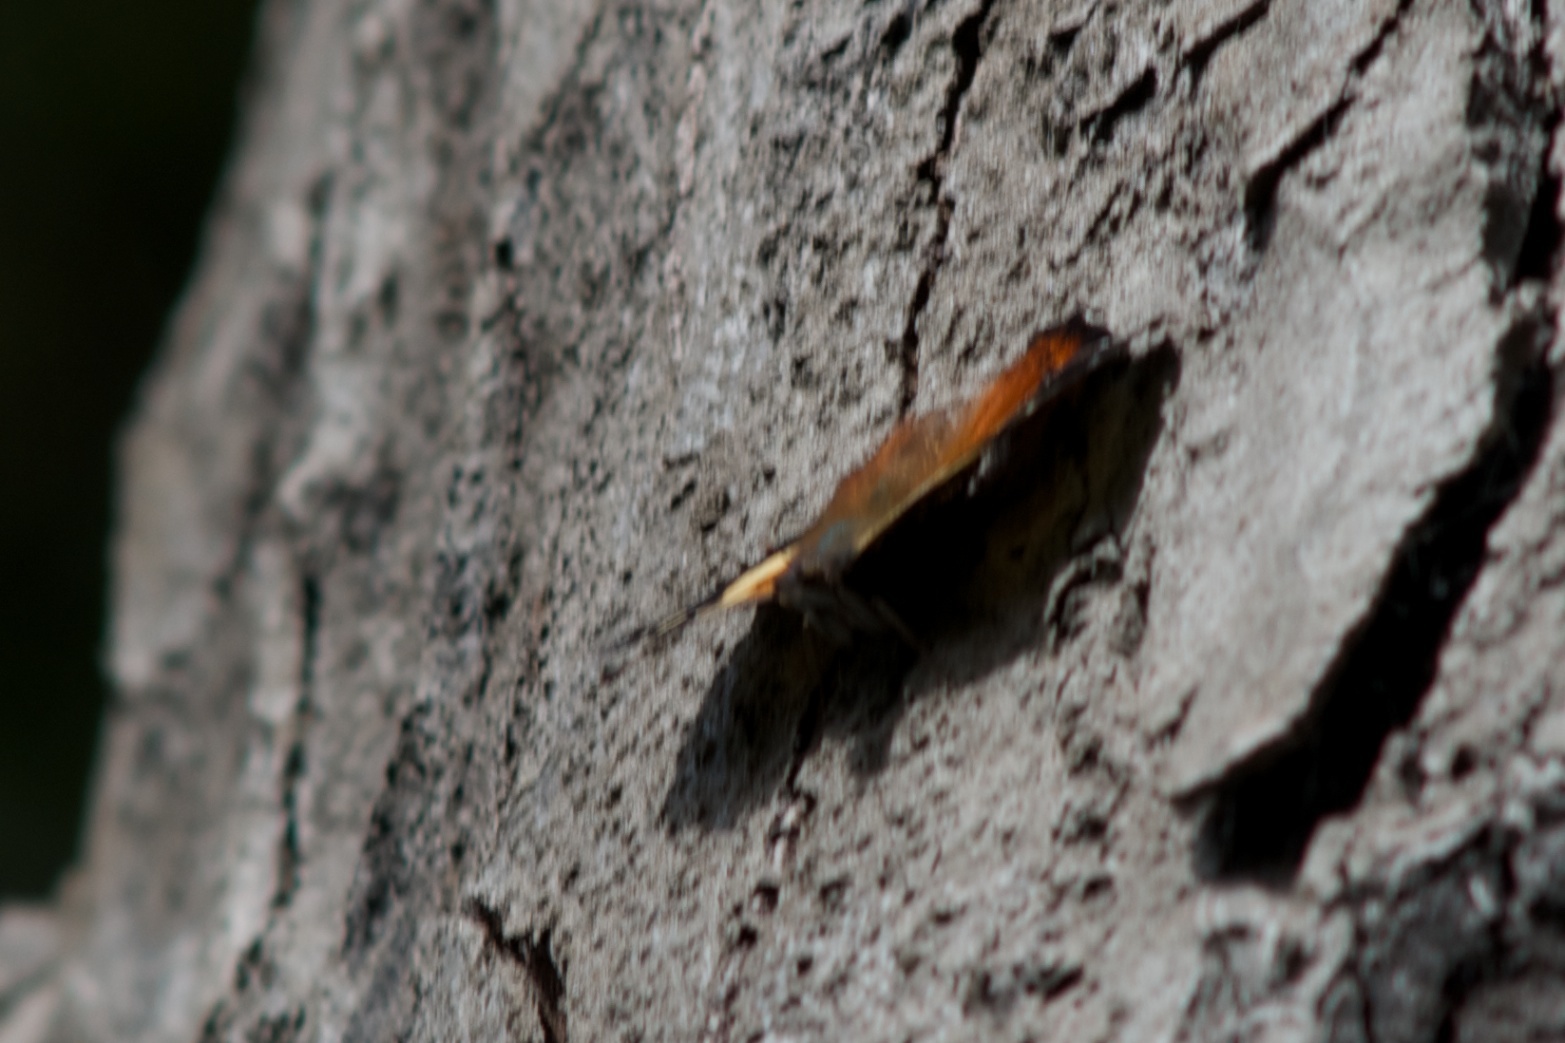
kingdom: Animalia
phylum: Arthropoda
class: Insecta
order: Lepidoptera
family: Nymphalidae
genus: Vanessa
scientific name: Vanessa itea
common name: Yellow admiral
